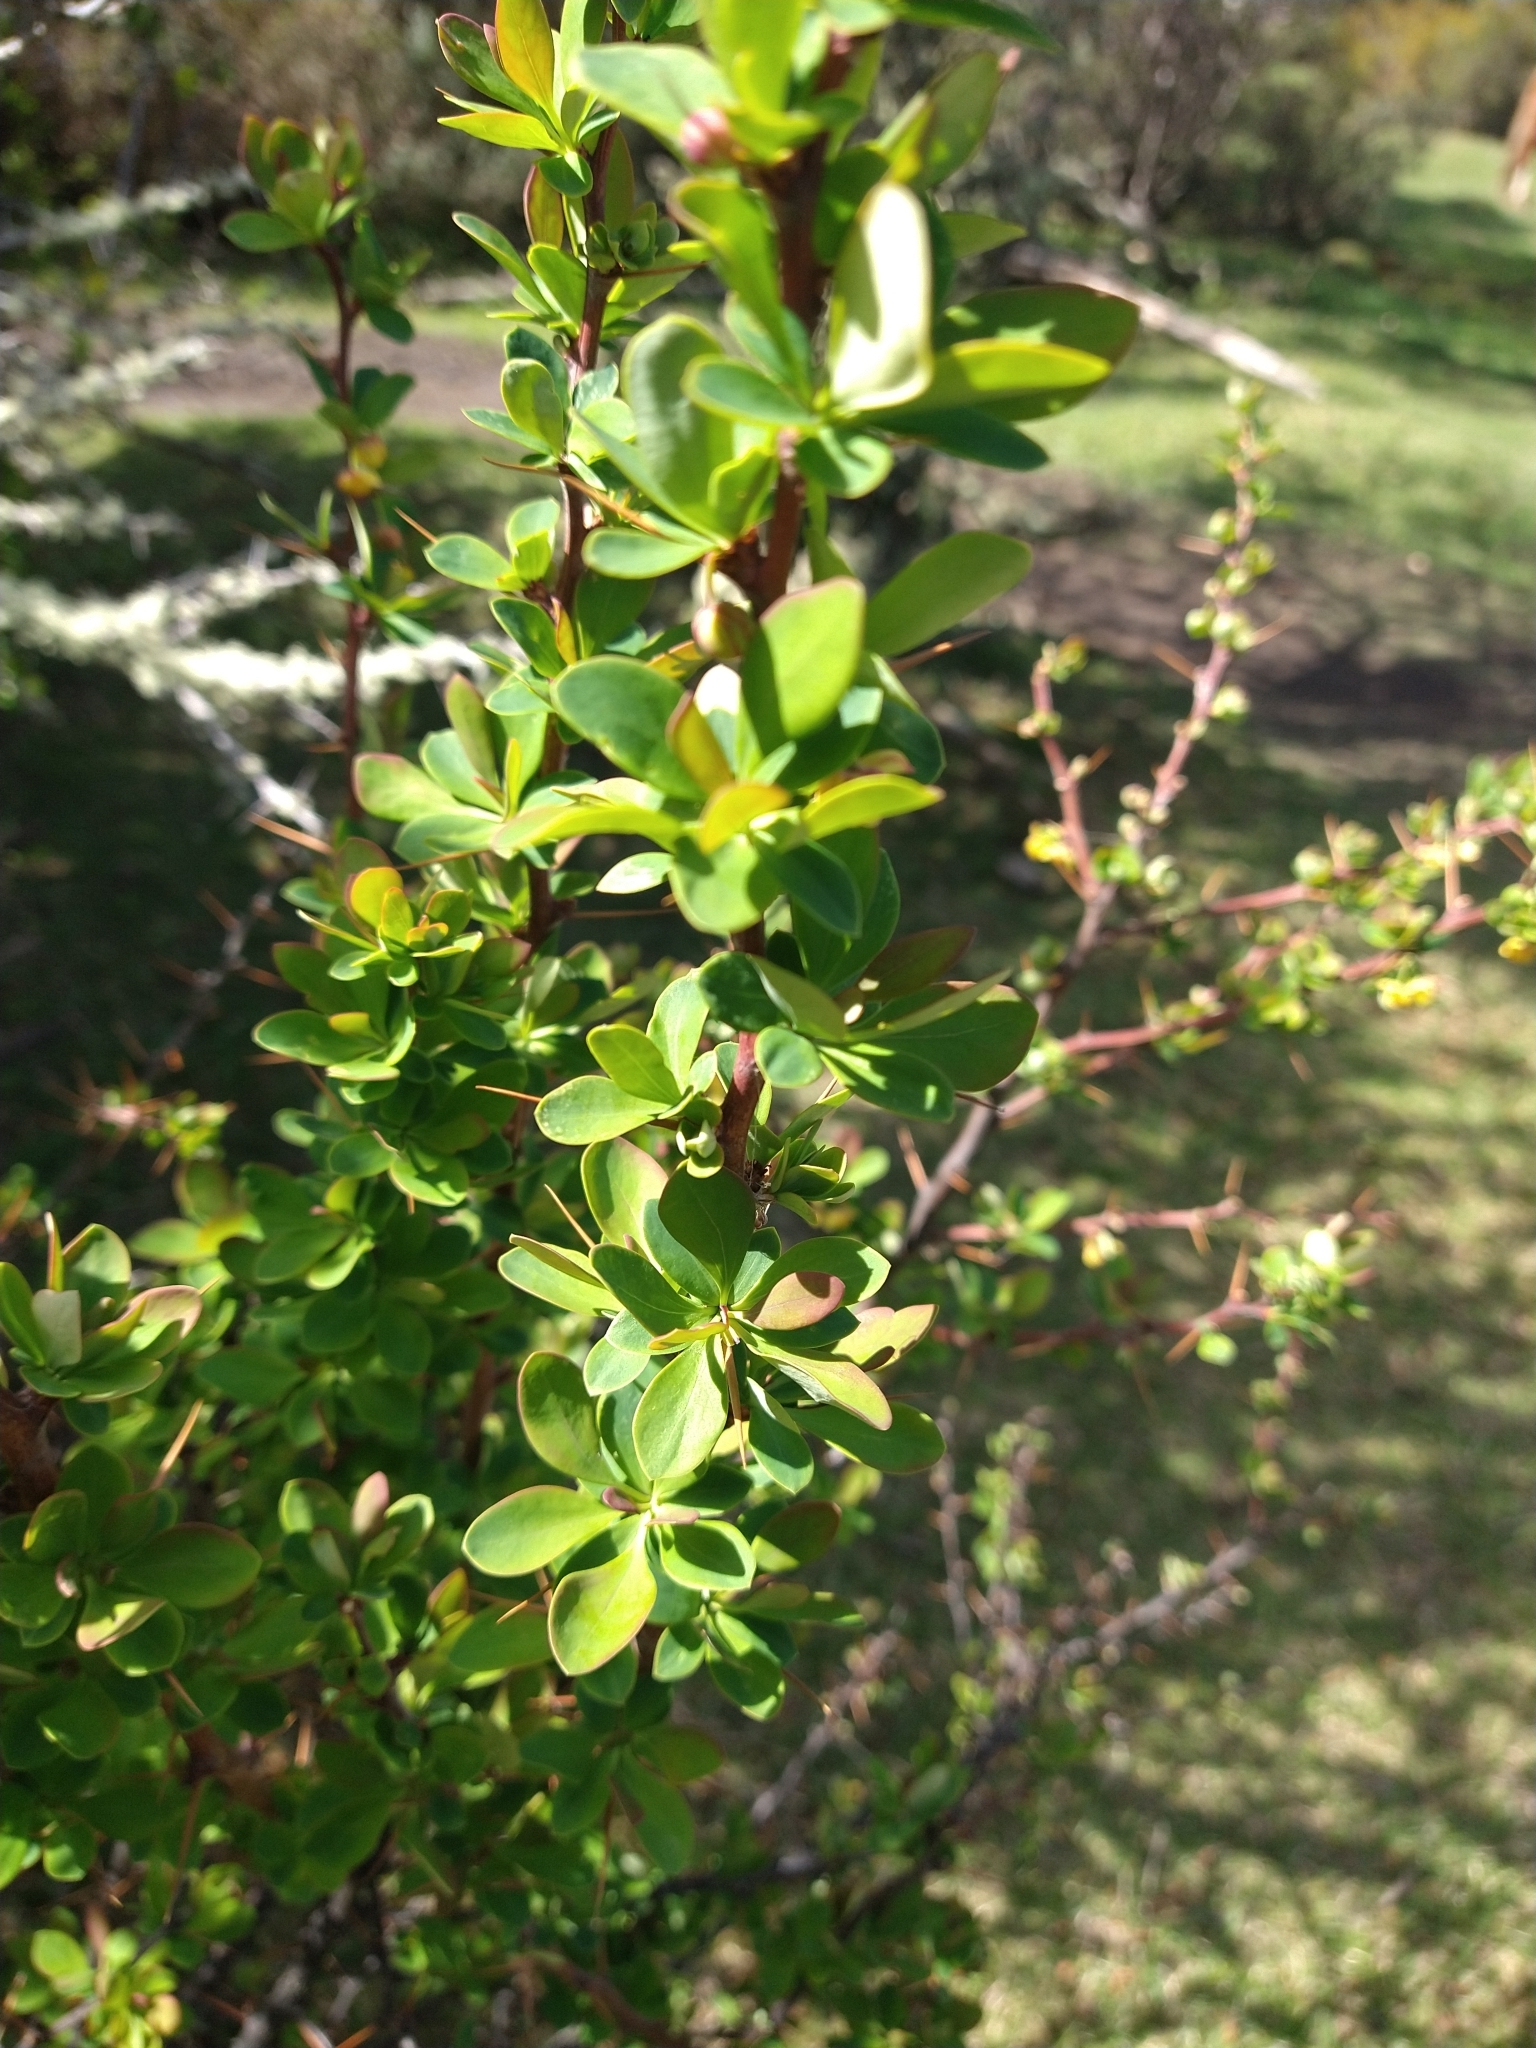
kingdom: Plantae
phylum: Tracheophyta
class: Magnoliopsida
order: Ranunculales
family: Berberidaceae
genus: Berberis
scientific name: Berberis microphylla
